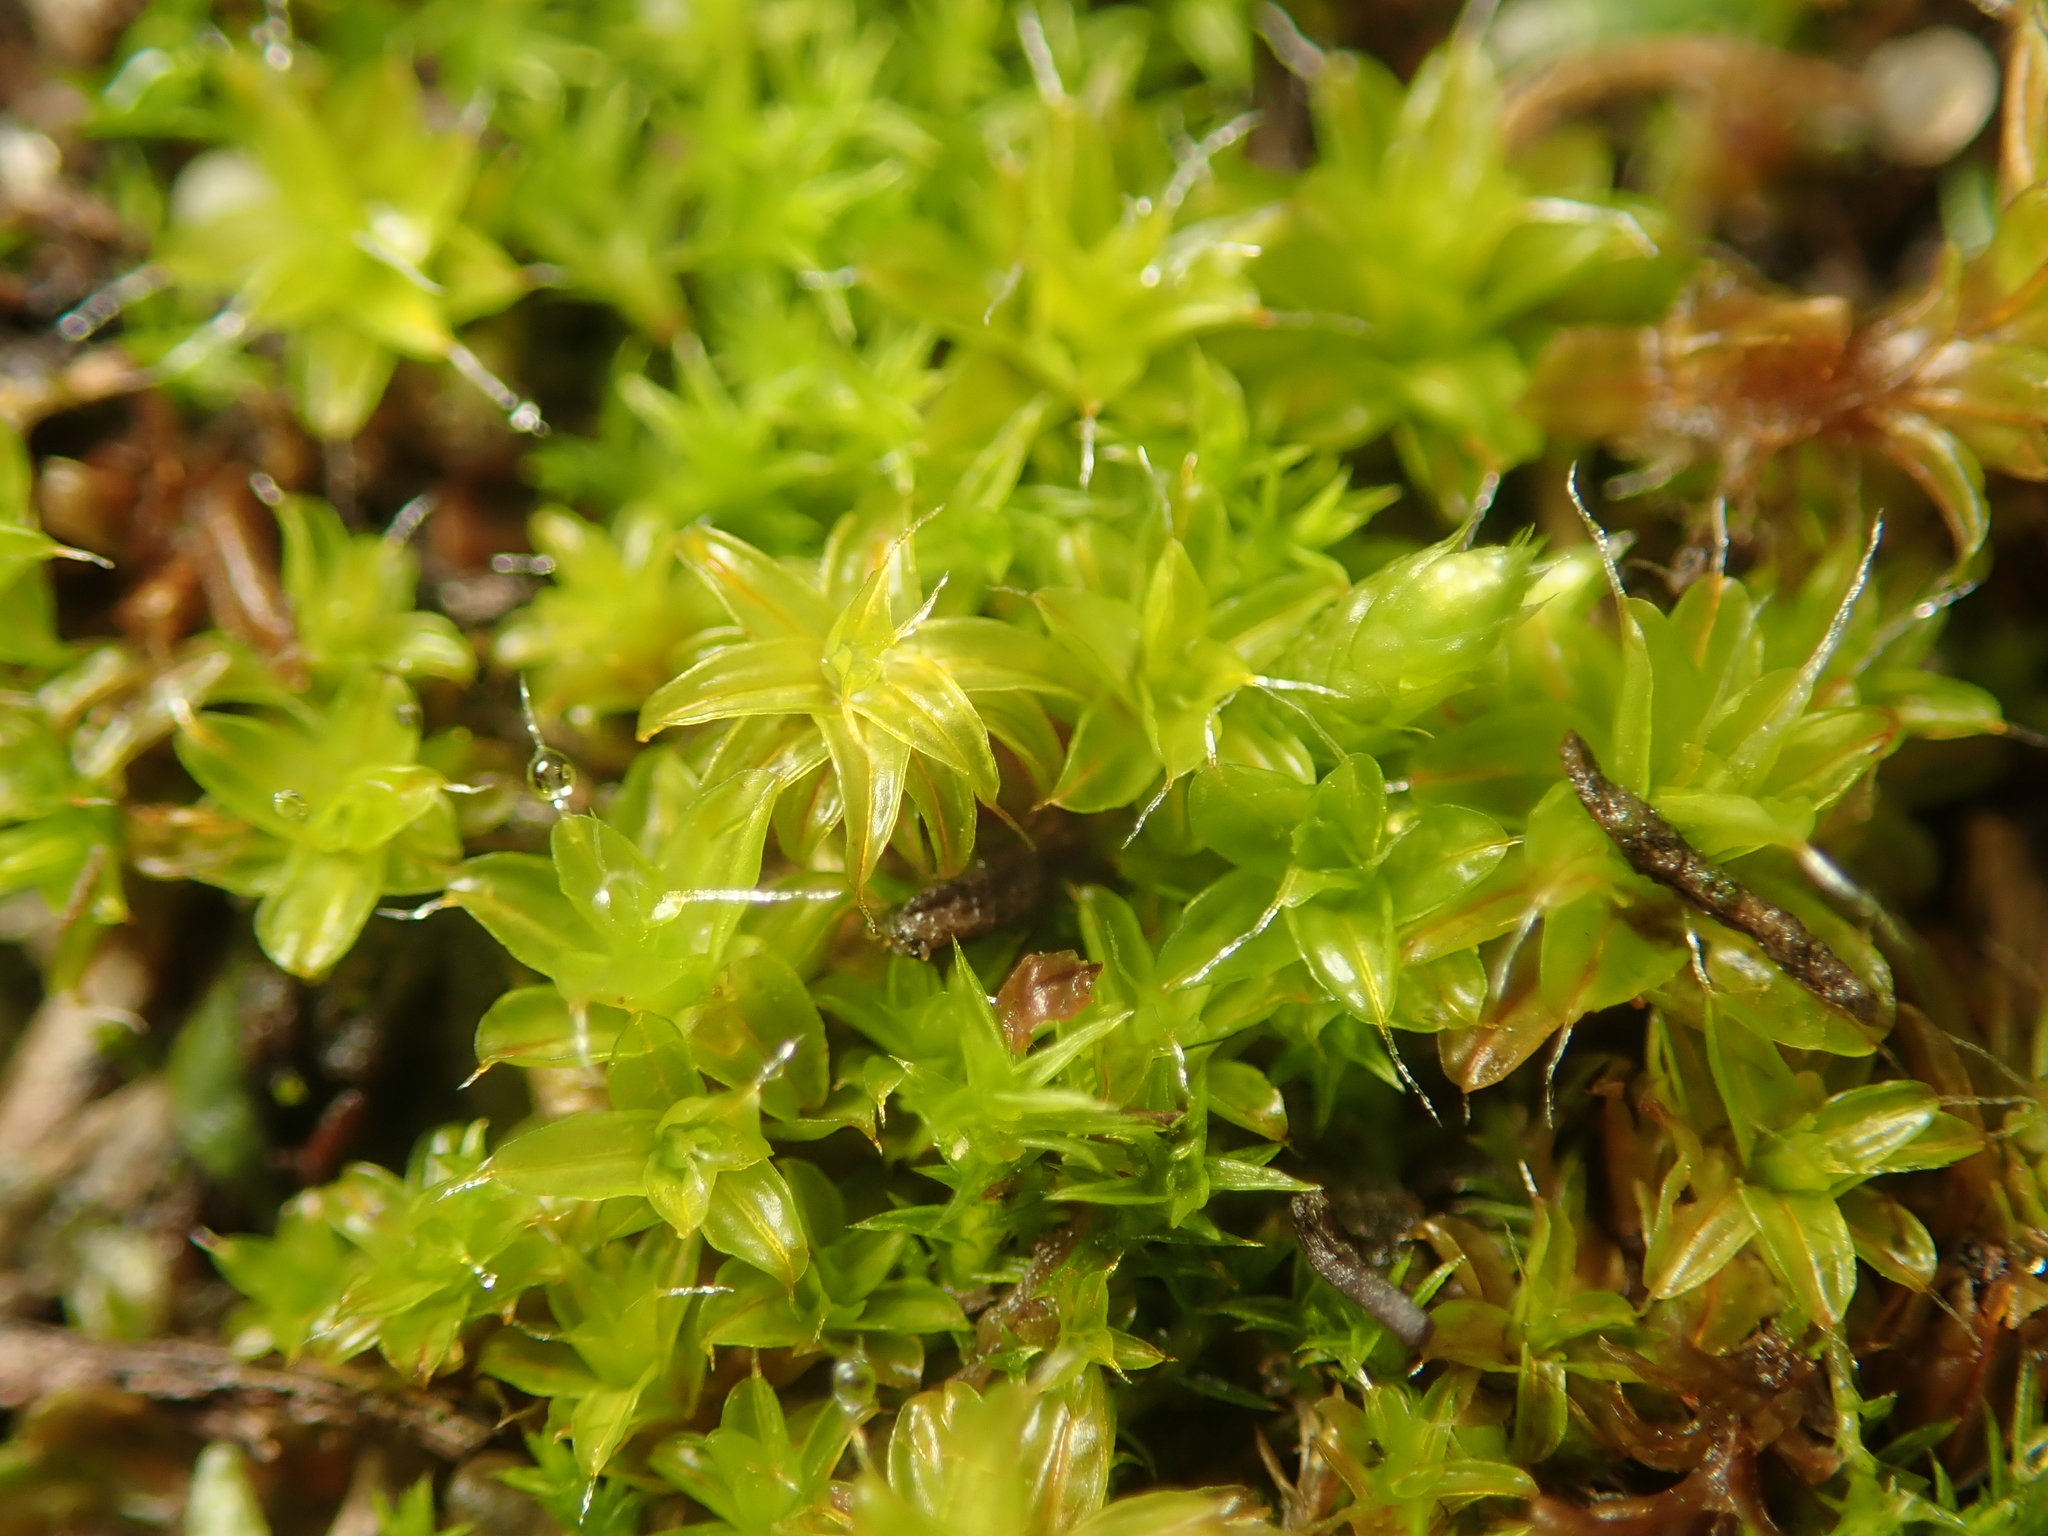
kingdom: Plantae
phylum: Bryophyta
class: Bryopsida
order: Pottiales
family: Pottiaceae
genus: Syntrichia
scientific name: Syntrichia ruralis
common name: Sidewalk screw moss
